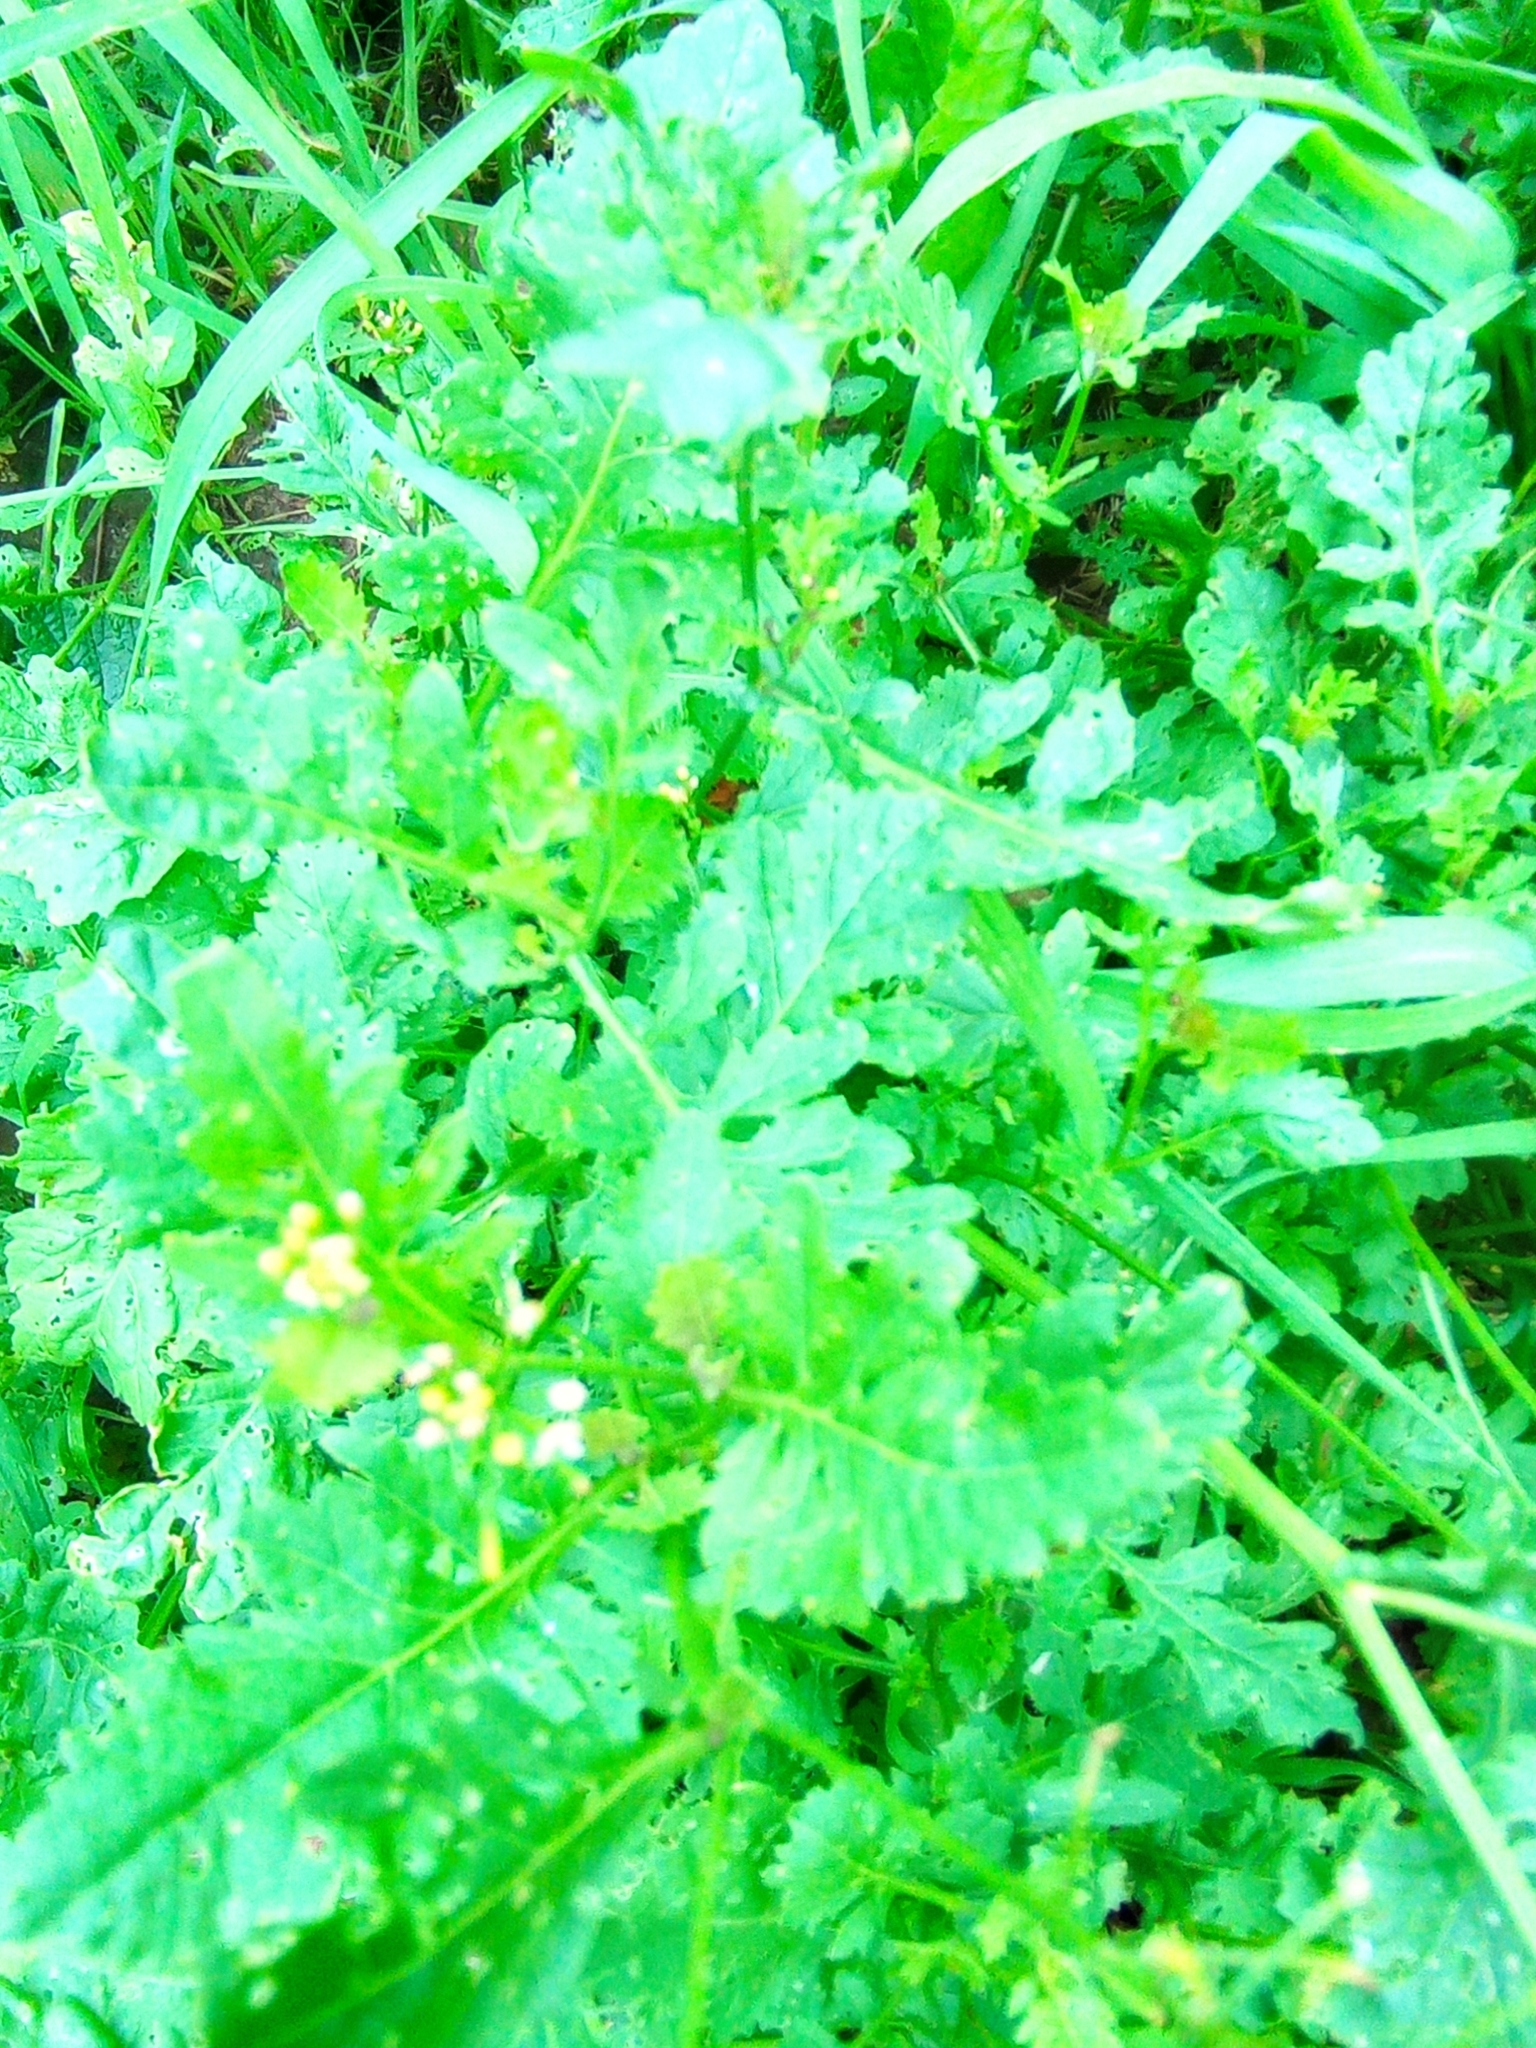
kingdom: Plantae
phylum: Tracheophyta
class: Magnoliopsida
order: Brassicales
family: Brassicaceae
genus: Rorippa
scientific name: Rorippa palustris
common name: Marsh yellow-cress
